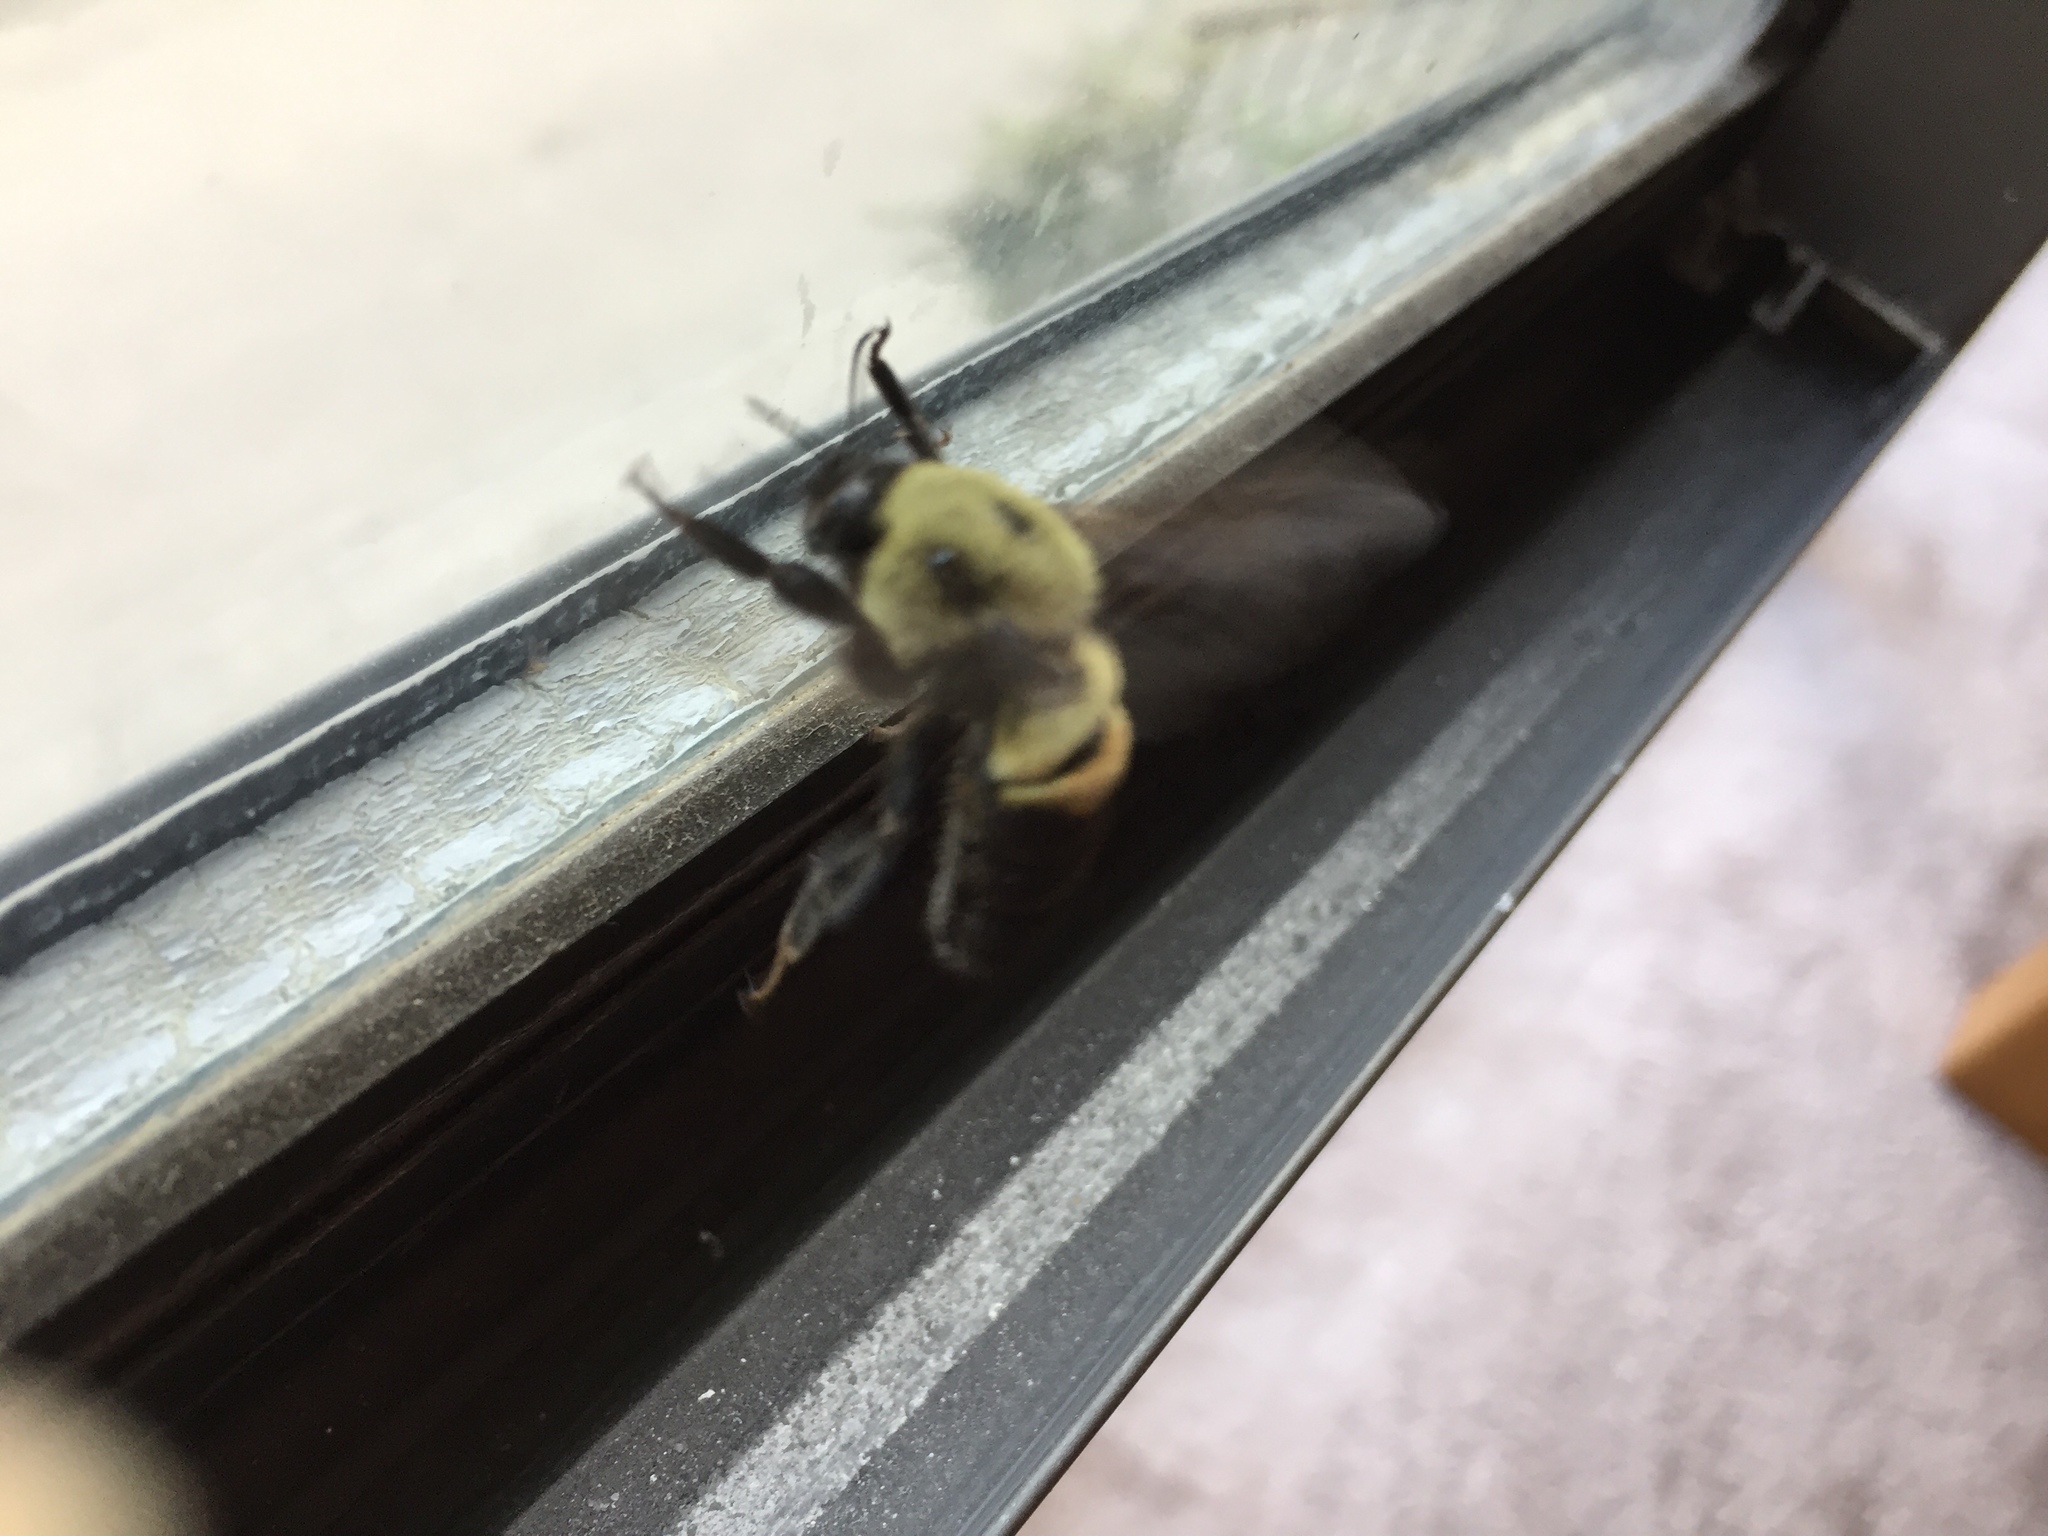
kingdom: Animalia
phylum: Arthropoda
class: Insecta
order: Hymenoptera
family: Apidae
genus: Bombus
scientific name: Bombus griseocollis
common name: Brown-belted bumble bee
